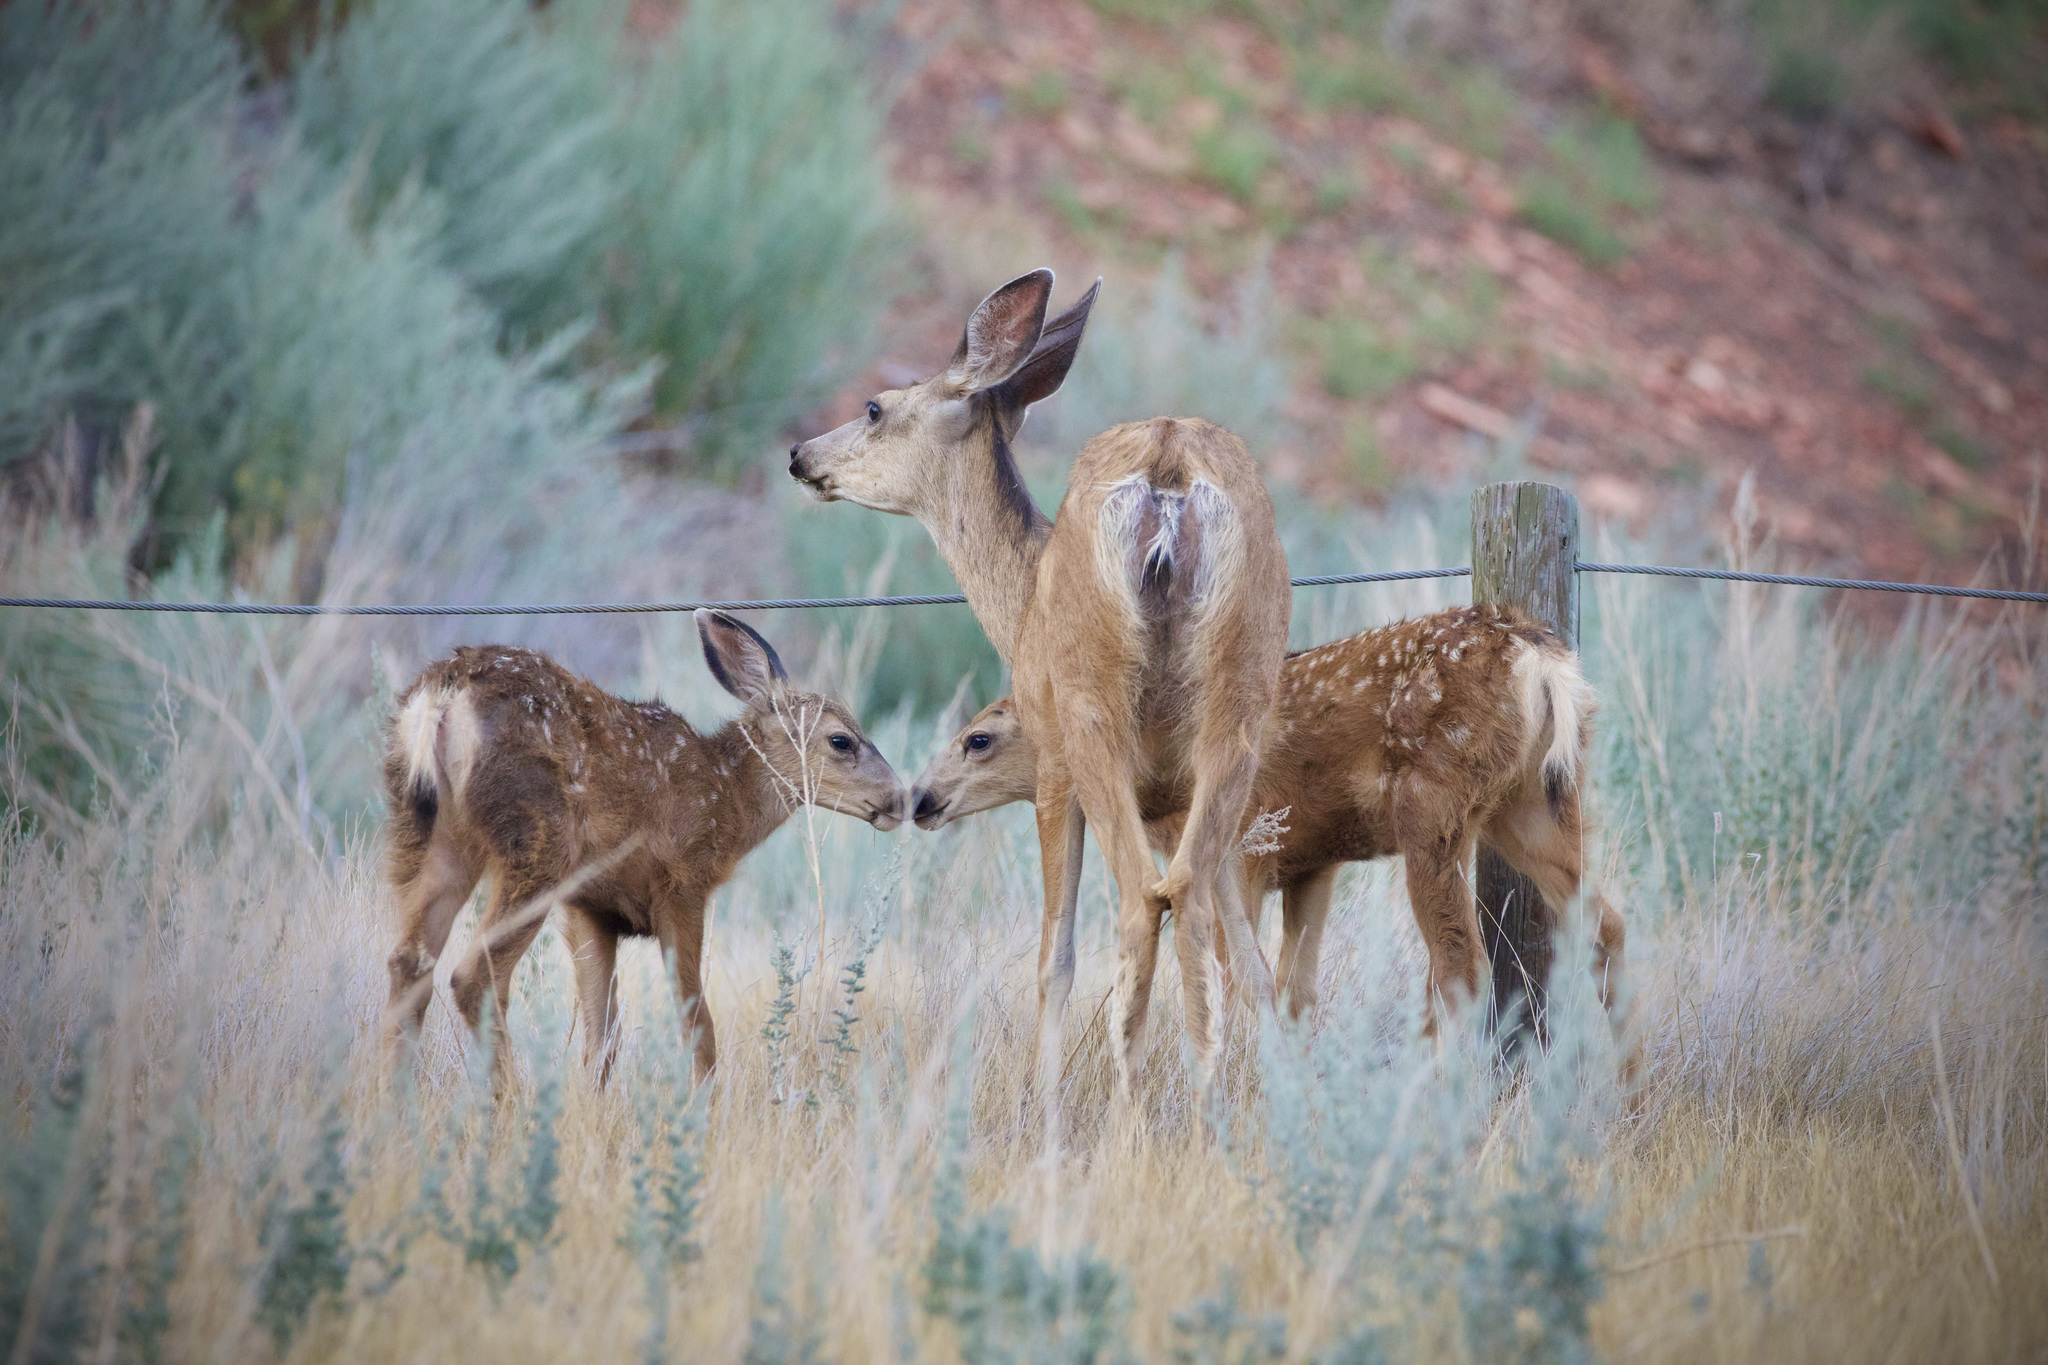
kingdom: Animalia
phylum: Chordata
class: Mammalia
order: Artiodactyla
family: Cervidae
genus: Odocoileus
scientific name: Odocoileus hemionus
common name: Mule deer
